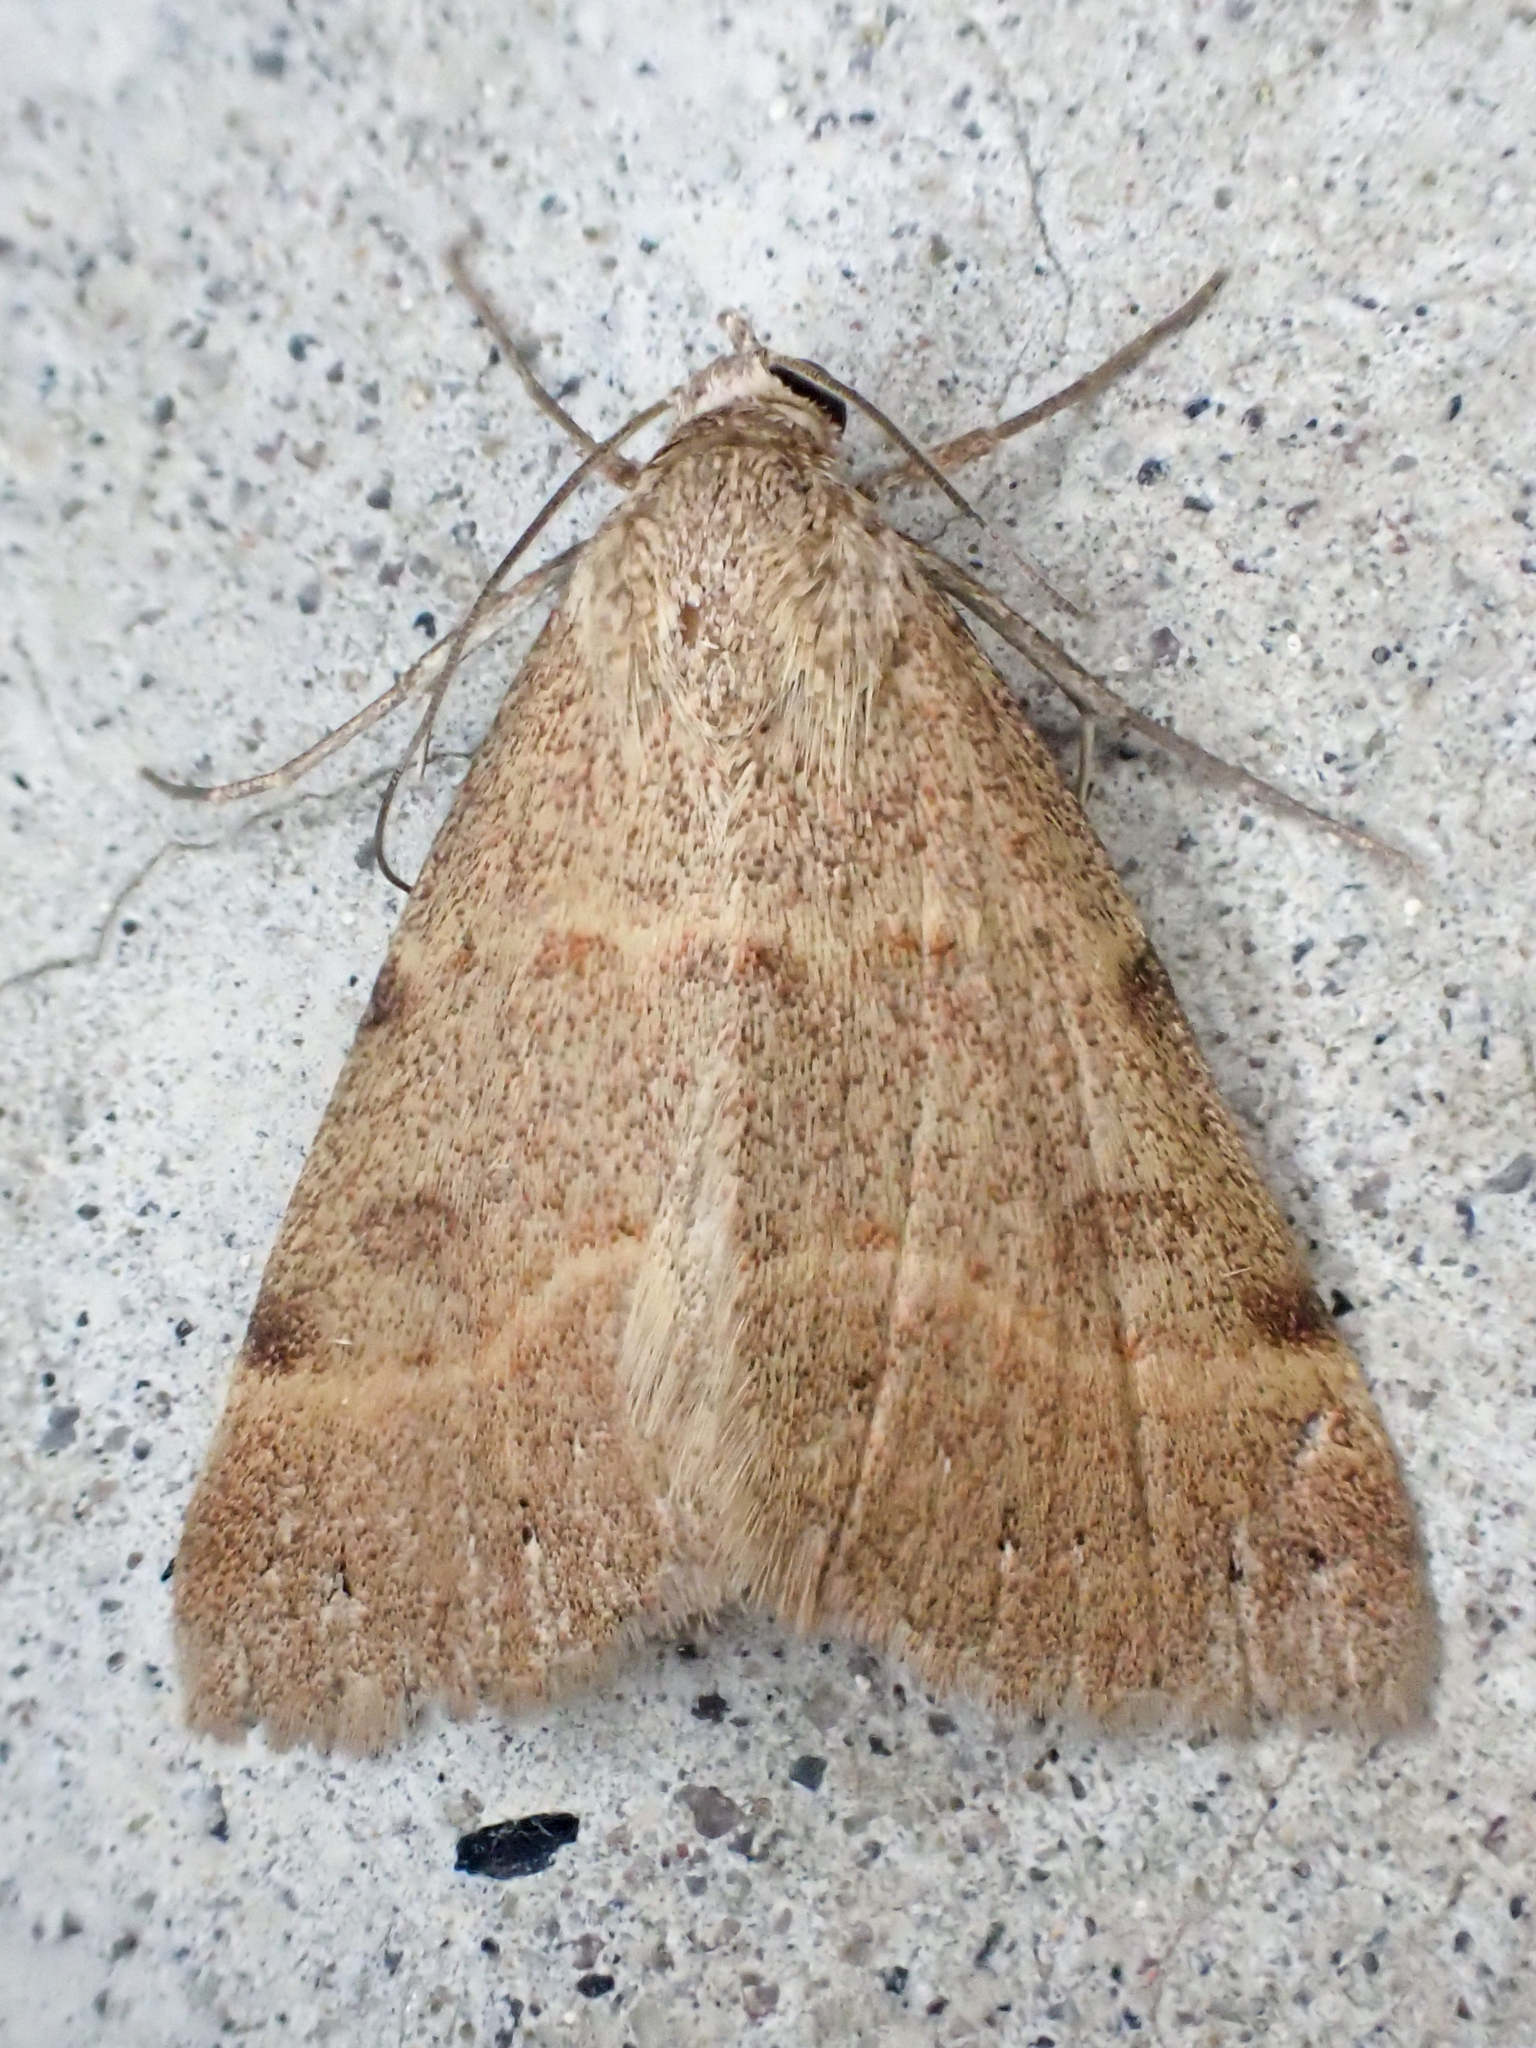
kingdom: Animalia
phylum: Arthropoda
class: Insecta
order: Lepidoptera
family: Erebidae
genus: Hemeroplanis
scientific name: Hemeroplanis historialis
